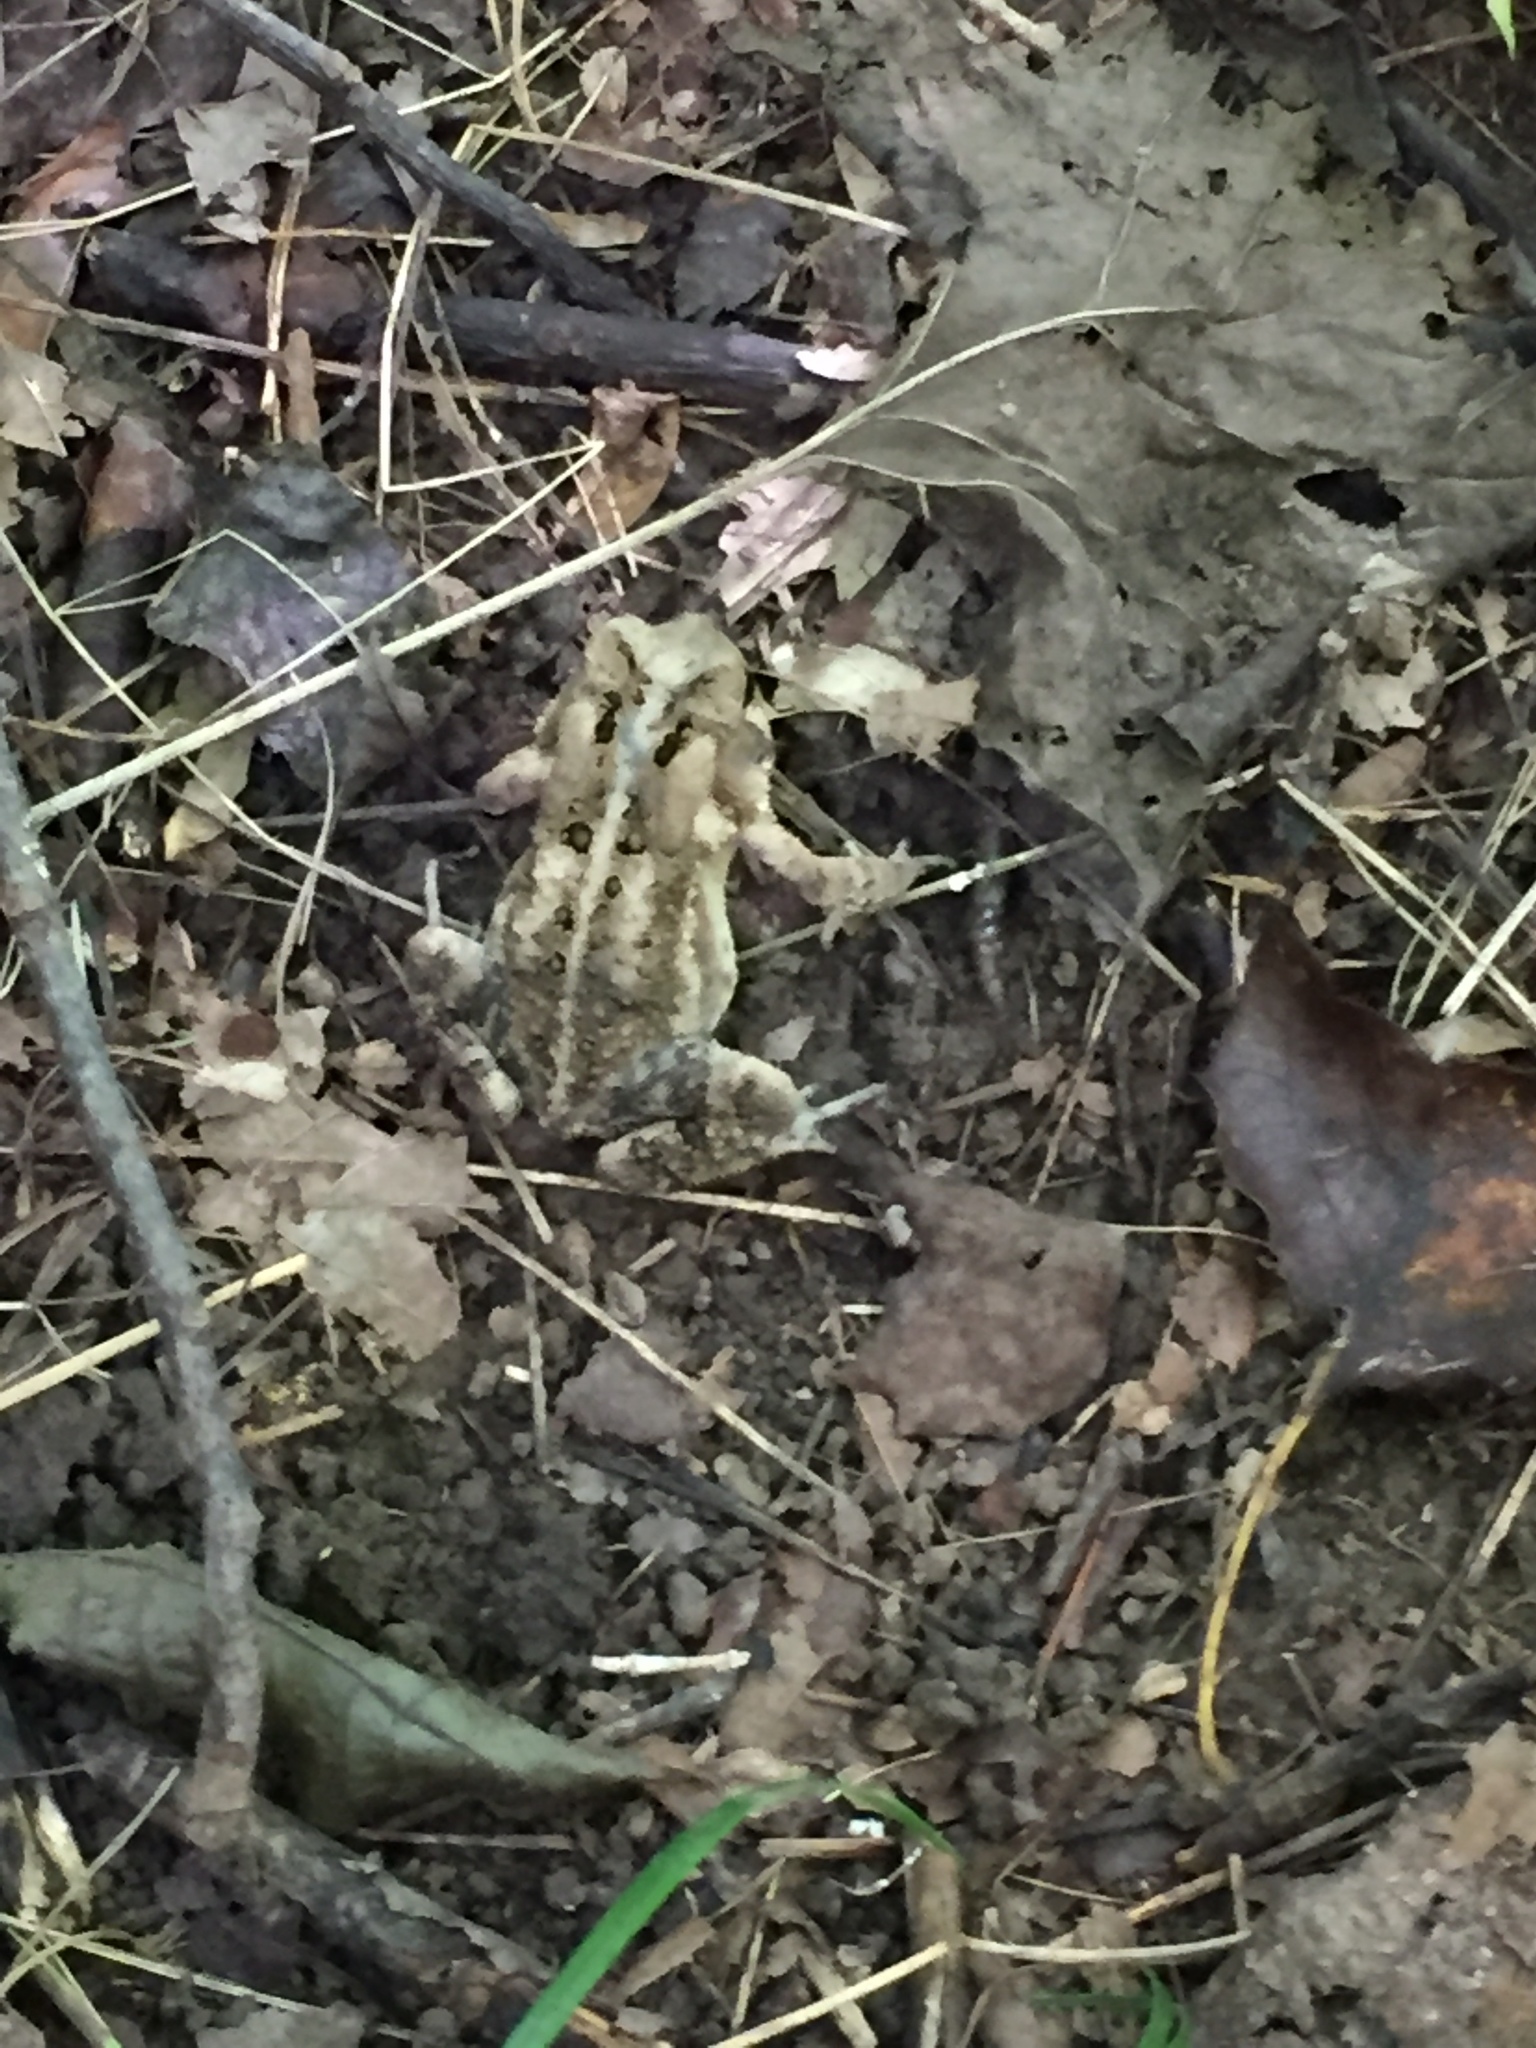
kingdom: Animalia
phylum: Chordata
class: Amphibia
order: Anura
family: Bufonidae
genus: Anaxyrus
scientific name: Anaxyrus americanus
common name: American toad
